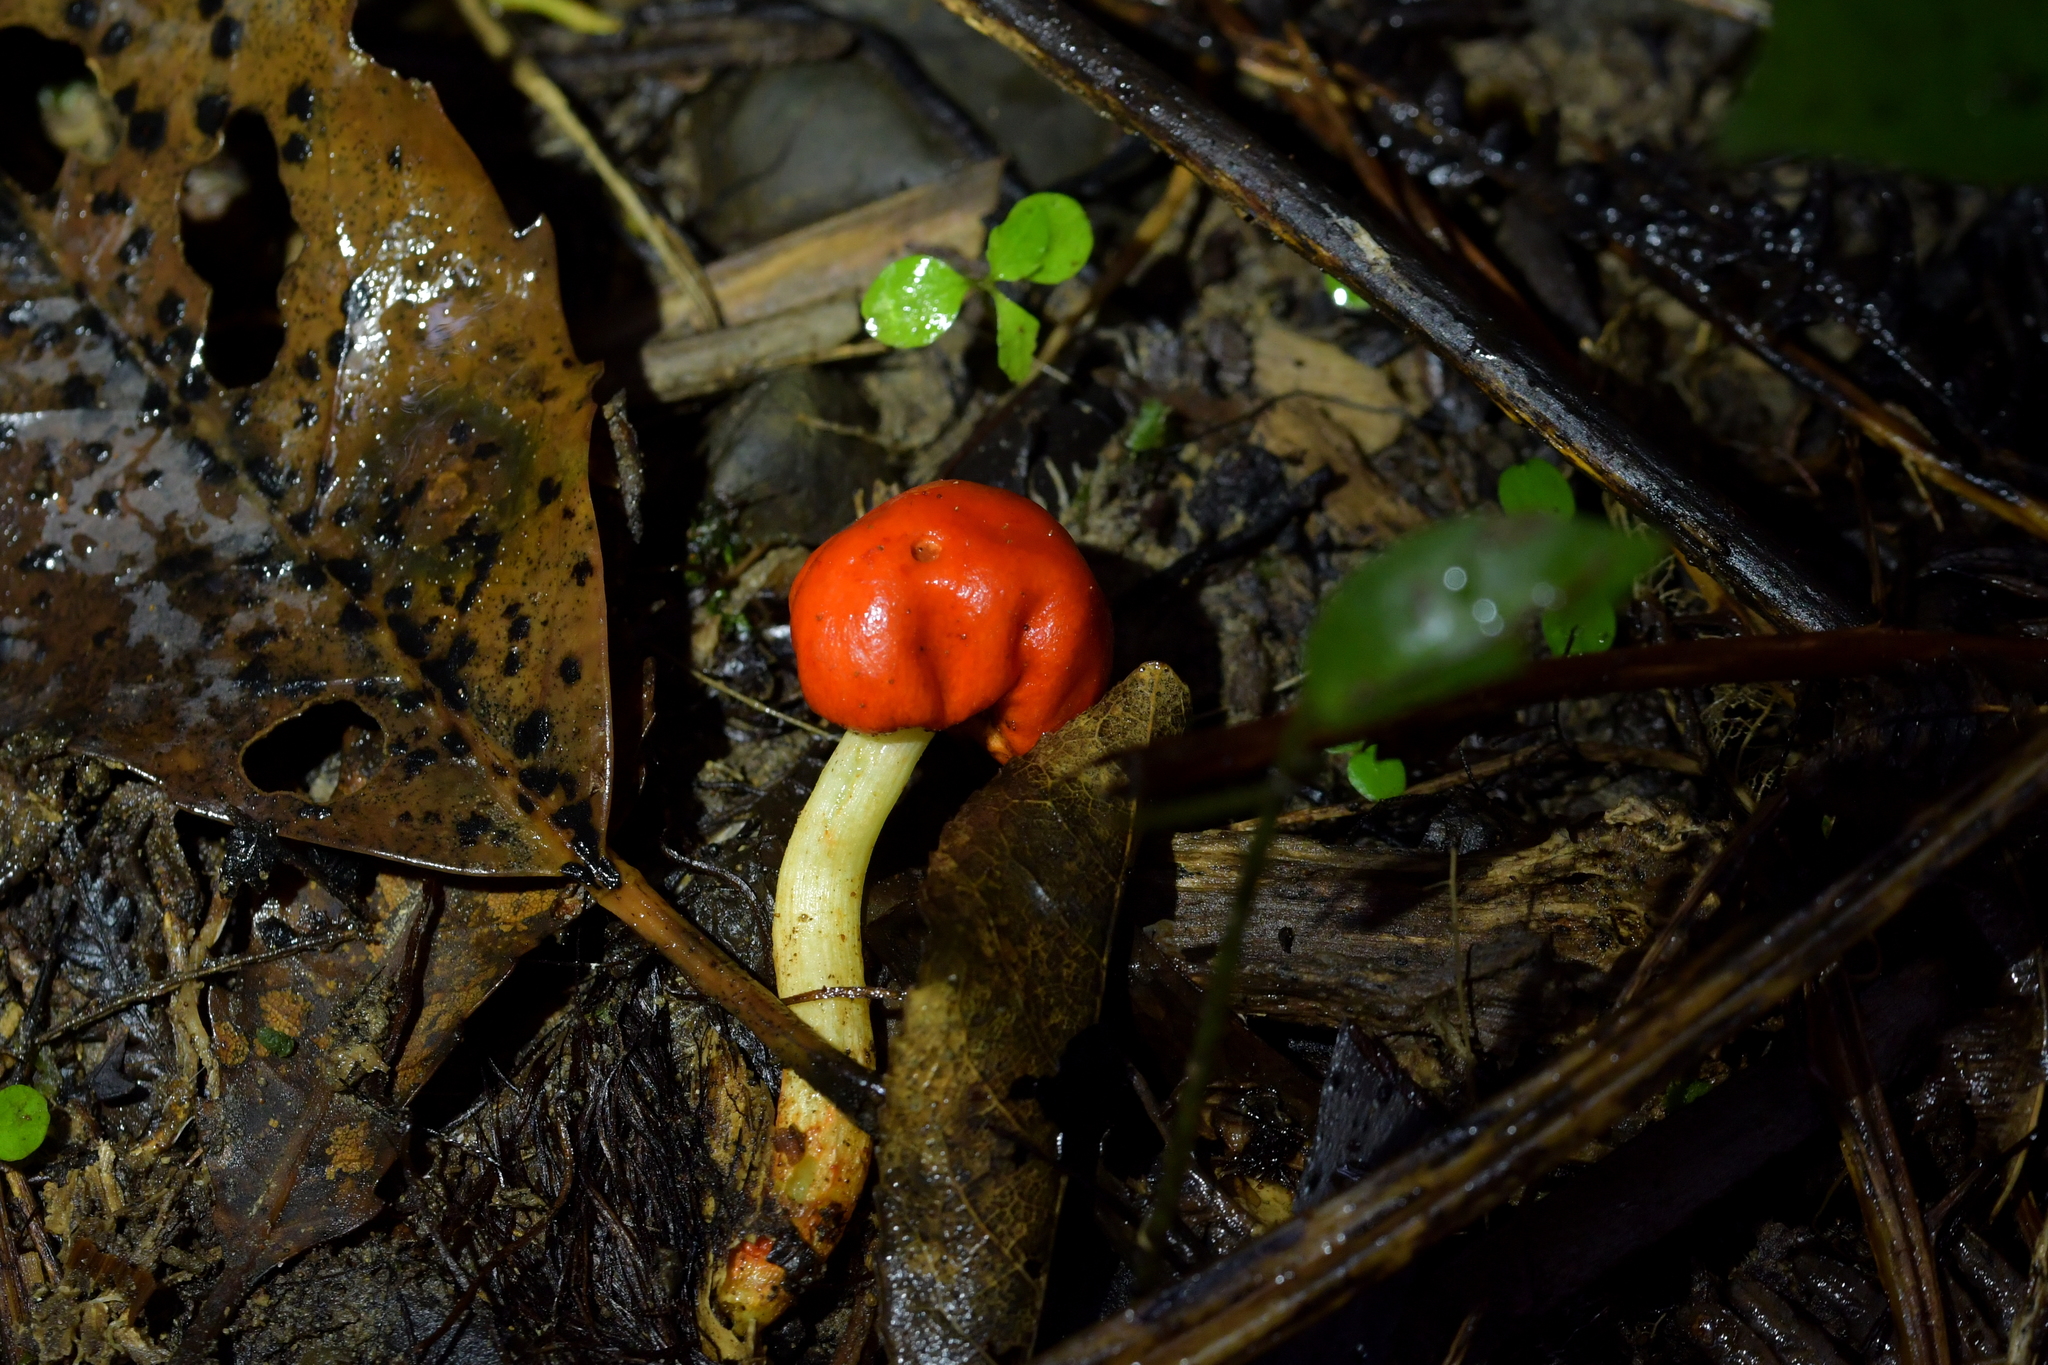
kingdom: Fungi
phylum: Basidiomycota
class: Agaricomycetes
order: Agaricales
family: Strophariaceae
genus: Leratiomyces
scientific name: Leratiomyces erythrocephalus
